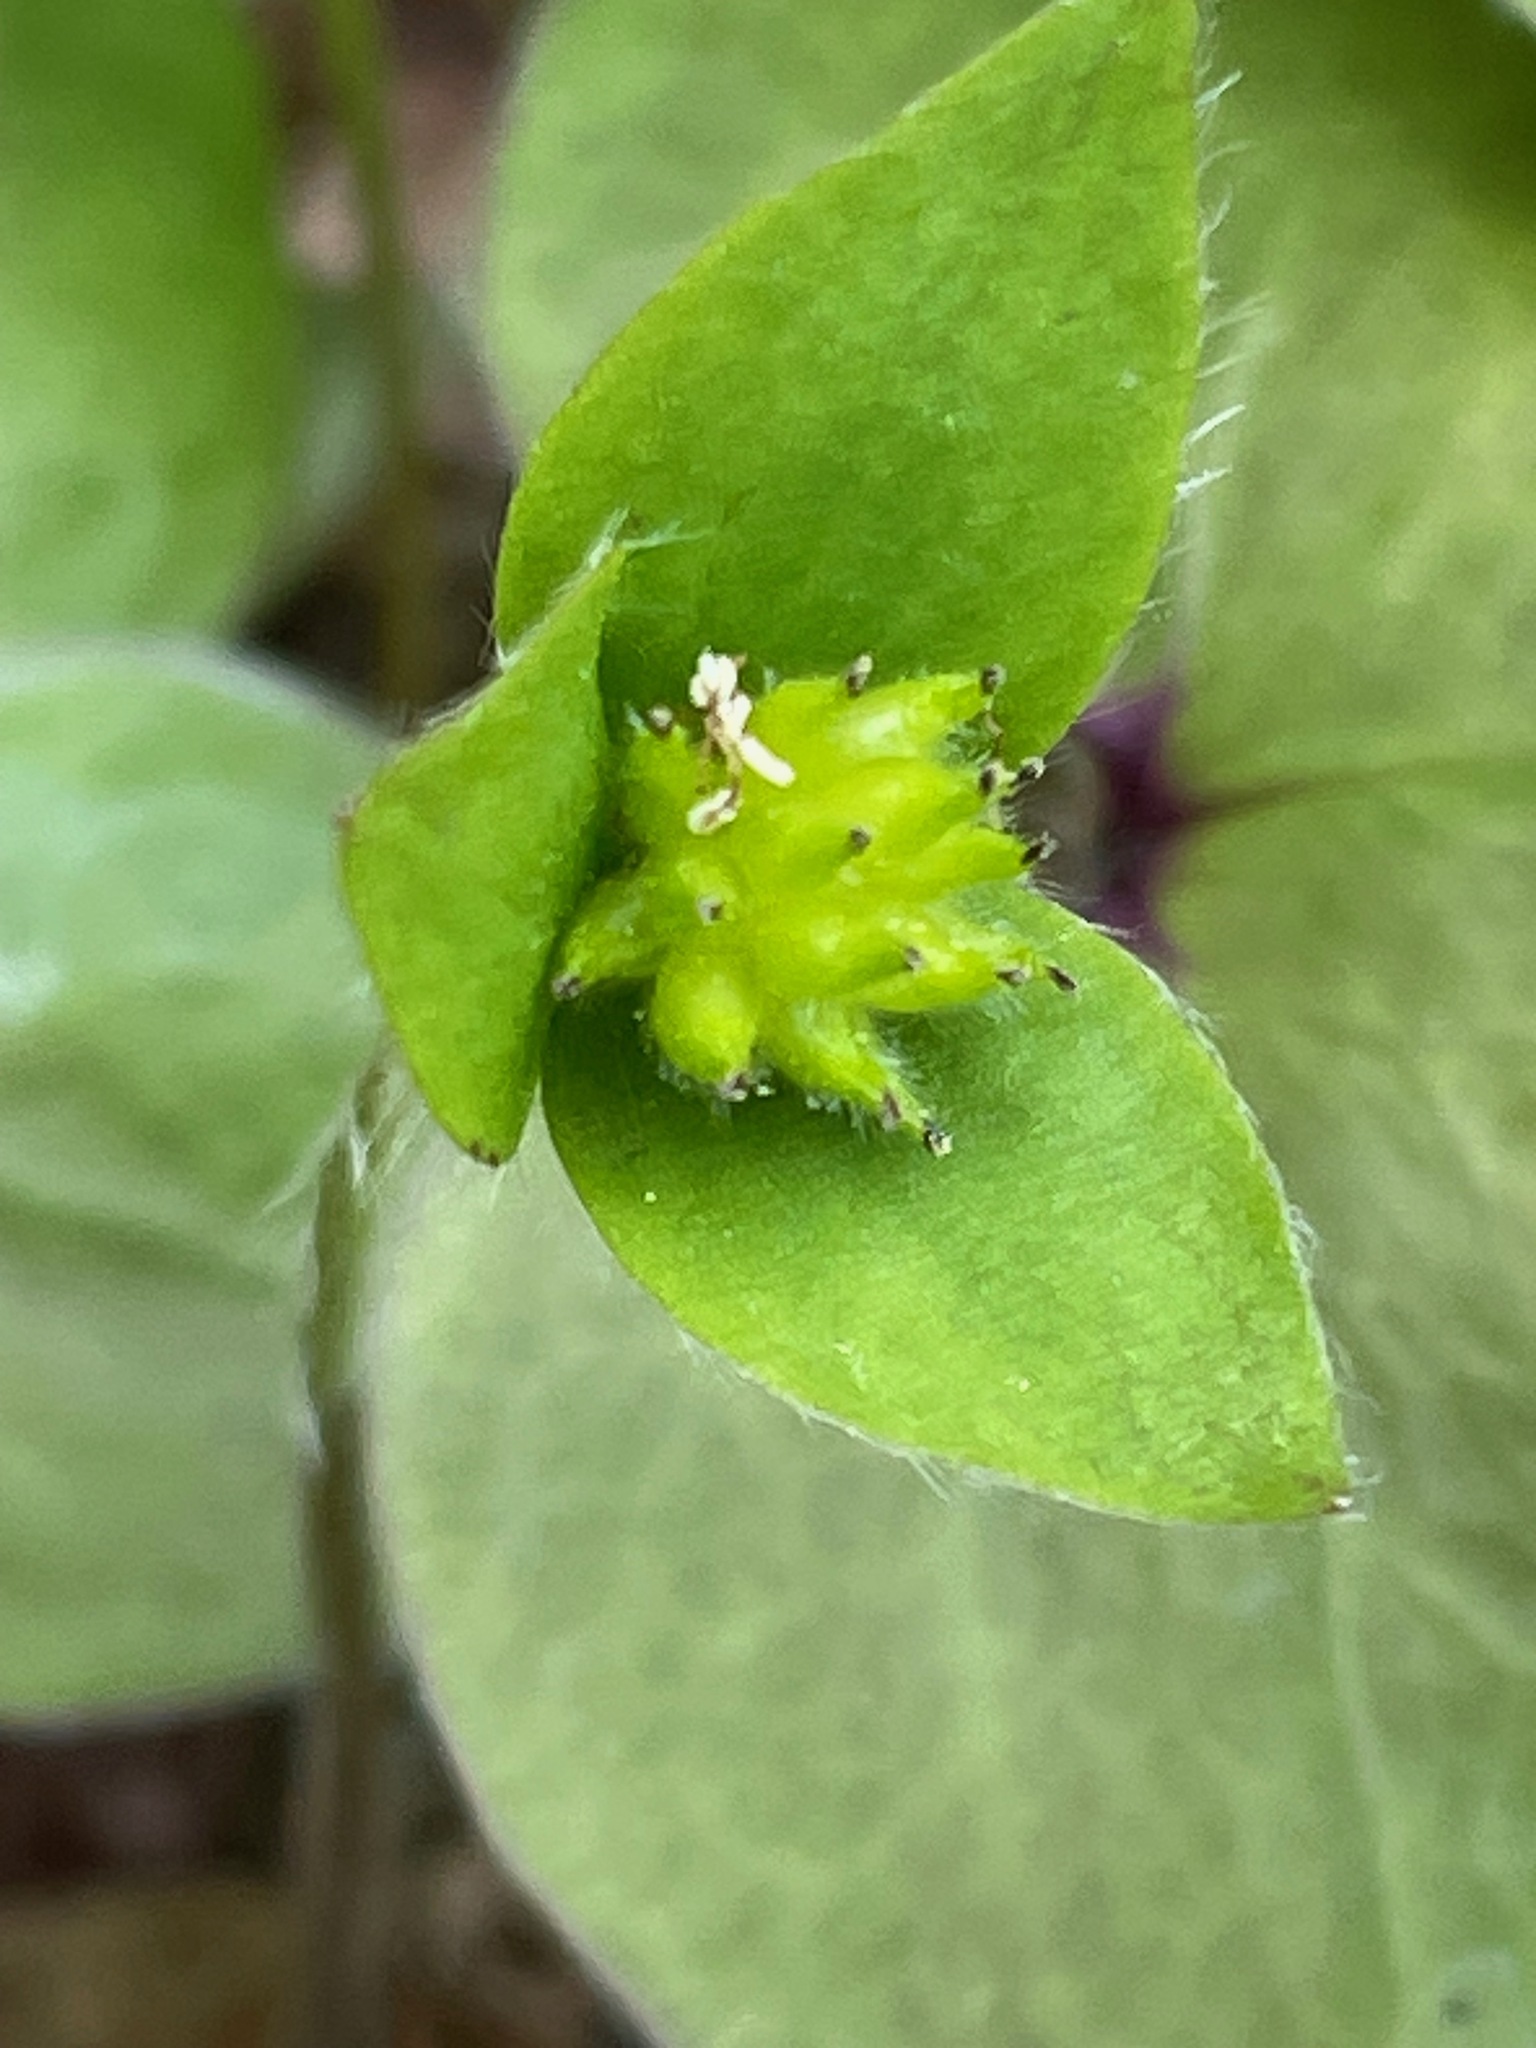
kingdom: Plantae
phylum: Tracheophyta
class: Magnoliopsida
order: Ranunculales
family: Ranunculaceae
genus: Hepatica
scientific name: Hepatica acutiloba
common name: Sharp-lobed hepatica
